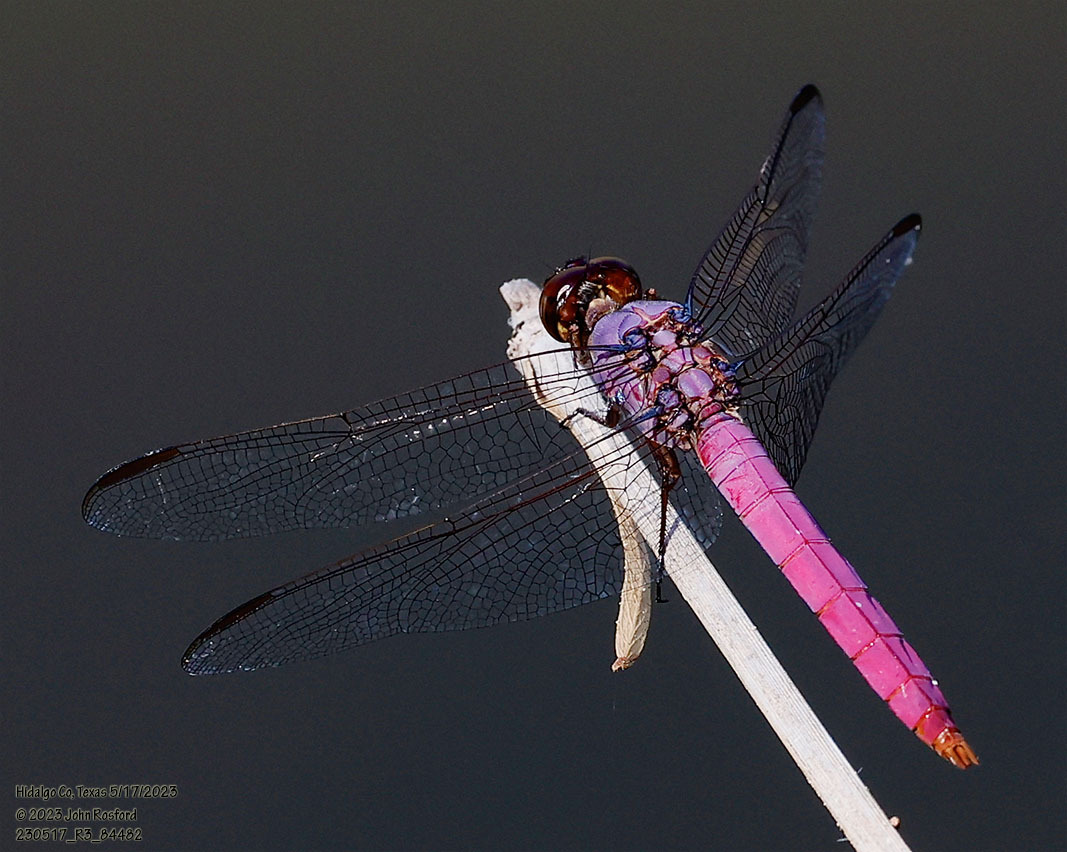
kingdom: Animalia
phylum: Arthropoda
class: Insecta
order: Odonata
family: Libellulidae
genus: Orthemis
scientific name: Orthemis ferruginea
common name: Roseate skimmer
